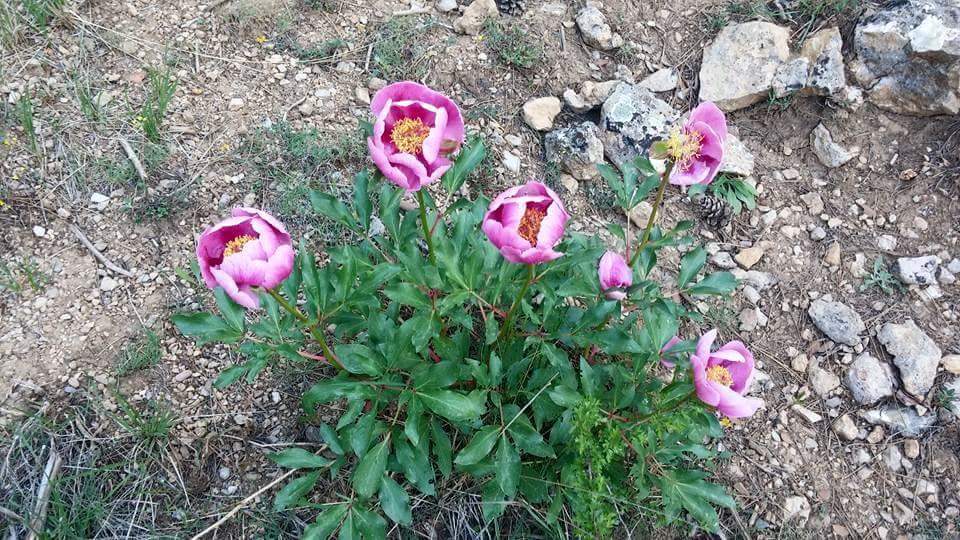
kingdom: Plantae
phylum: Tracheophyta
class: Magnoliopsida
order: Saxifragales
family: Paeoniaceae
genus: Paeonia
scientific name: Paeonia broteroi
